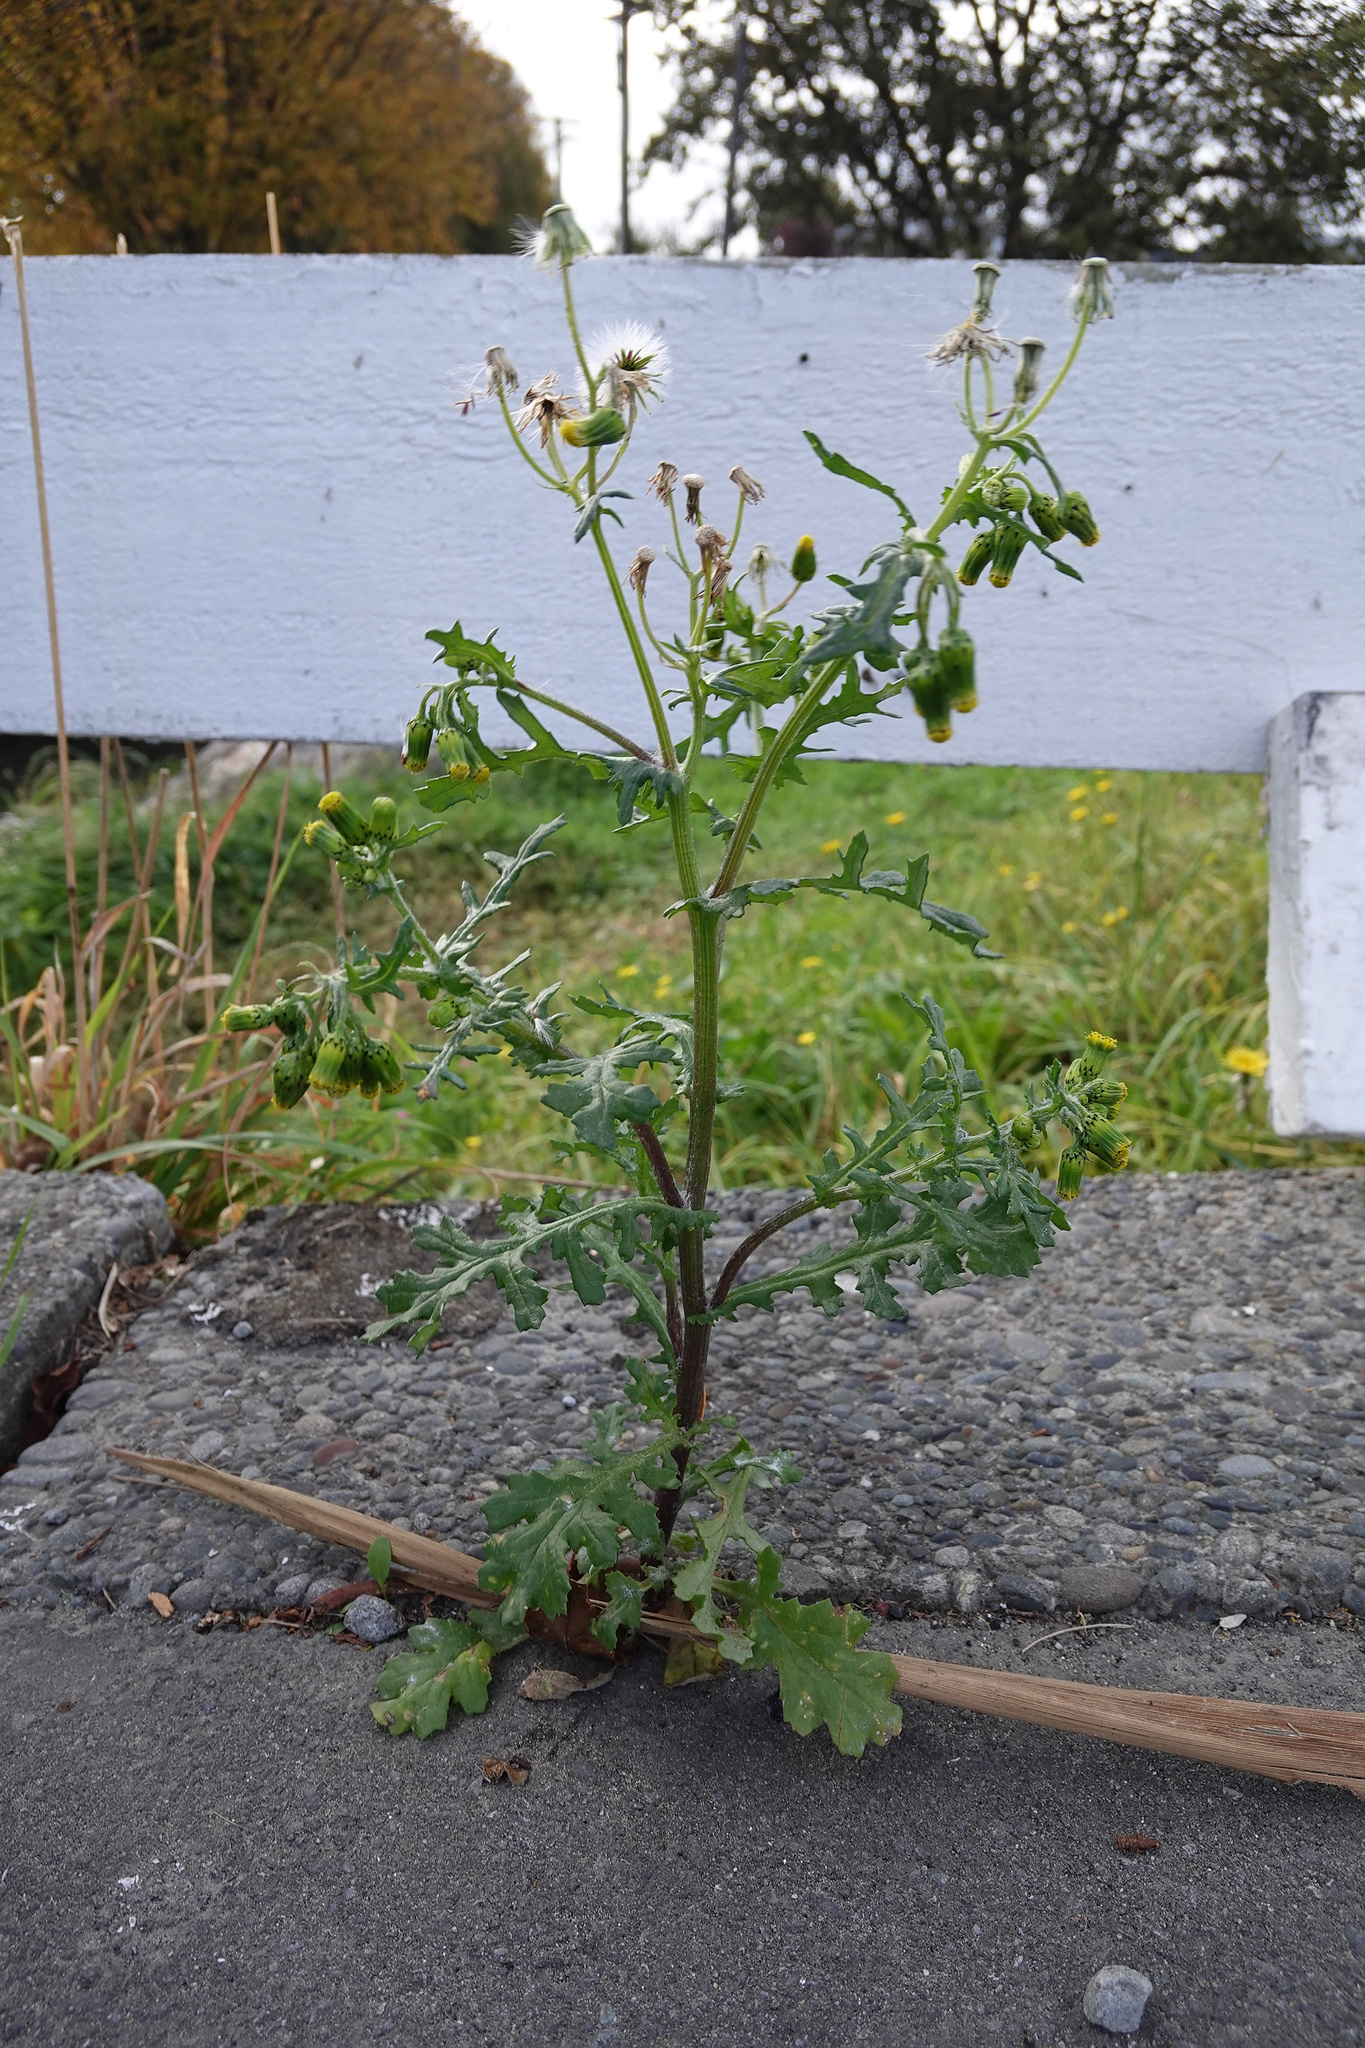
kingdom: Plantae
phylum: Tracheophyta
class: Magnoliopsida
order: Asterales
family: Asteraceae
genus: Senecio
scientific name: Senecio vulgaris
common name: Old-man-in-the-spring
